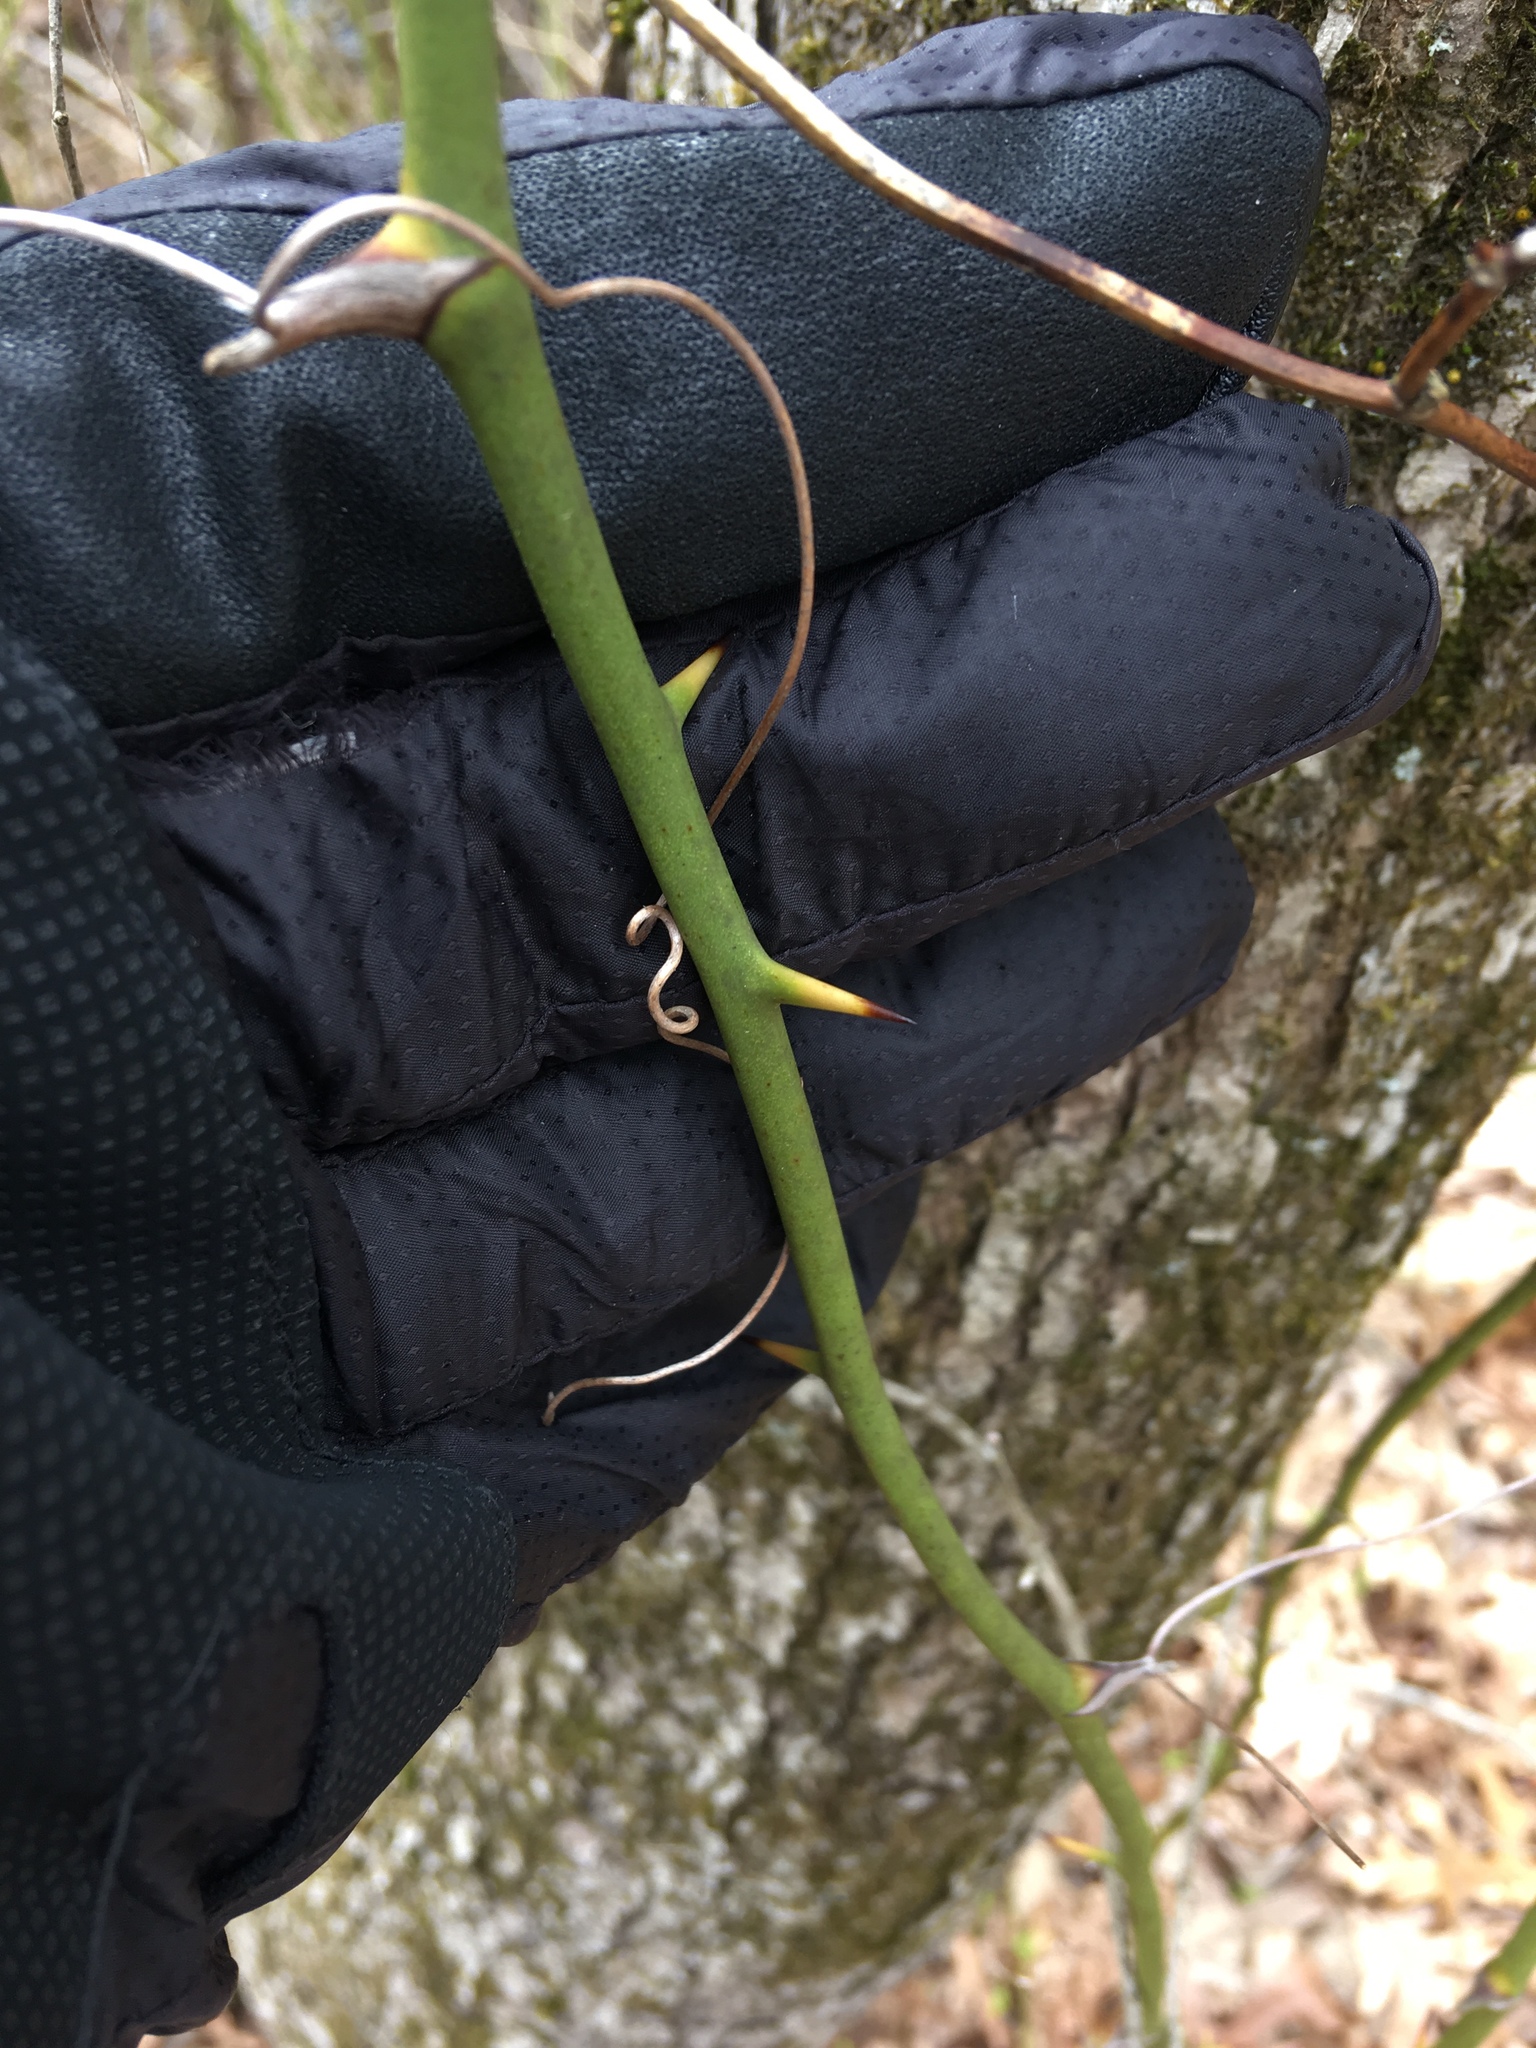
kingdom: Plantae
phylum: Tracheophyta
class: Liliopsida
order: Liliales
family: Smilacaceae
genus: Smilax
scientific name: Smilax rotundifolia
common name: Bullbriar
